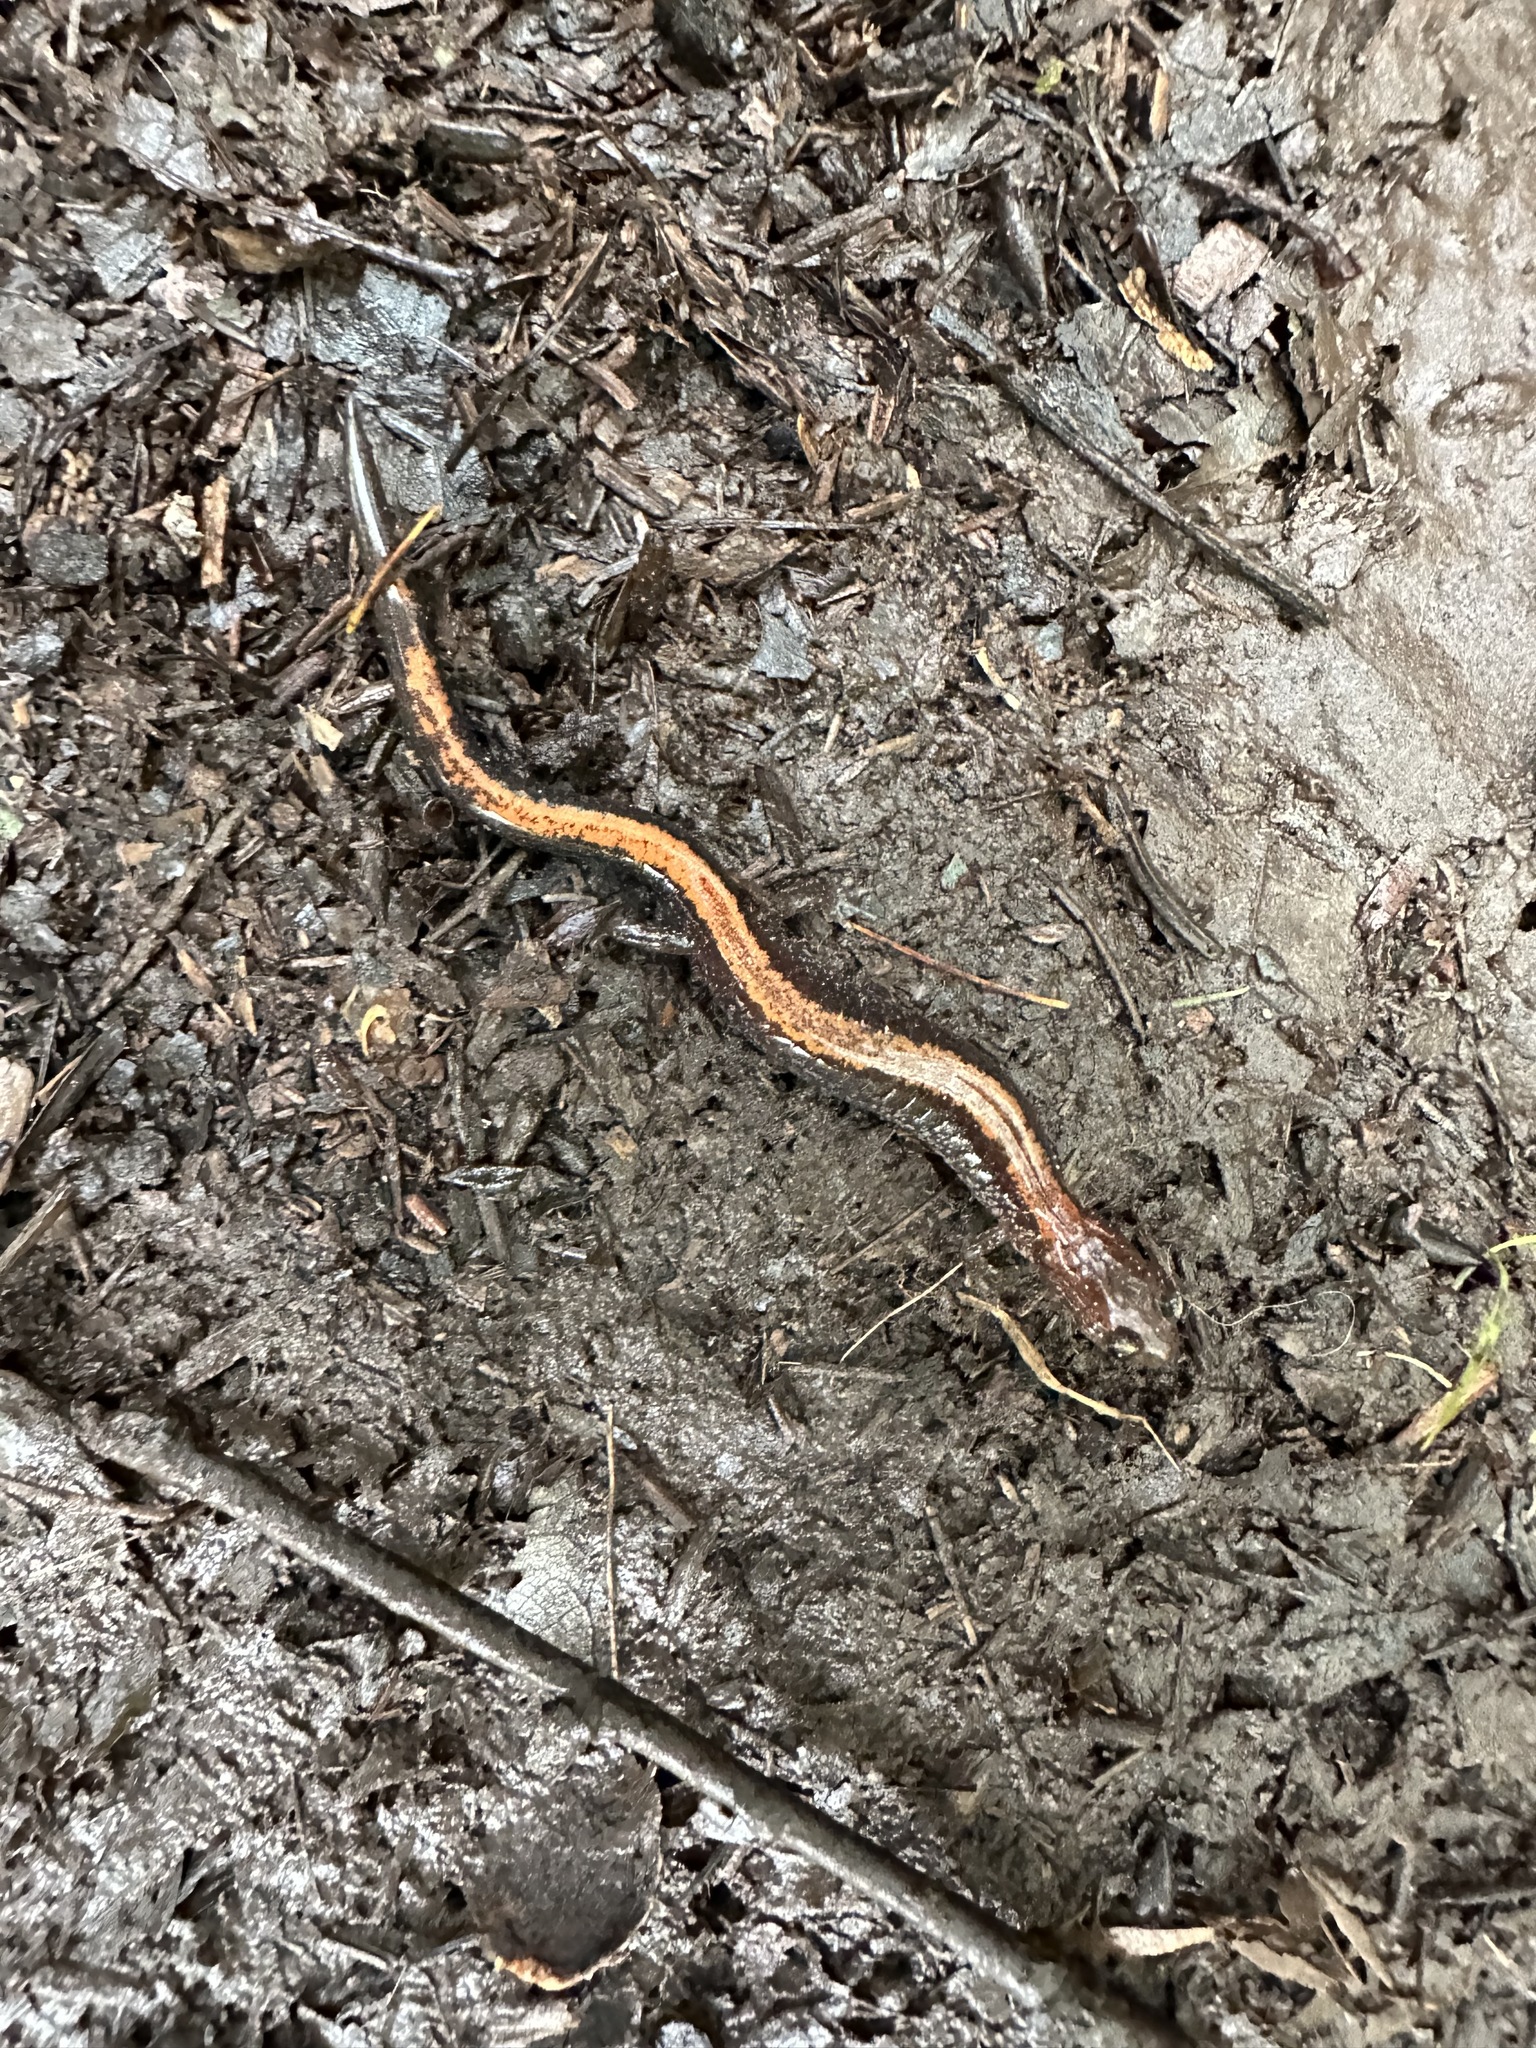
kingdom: Animalia
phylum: Chordata
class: Amphibia
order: Caudata
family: Plethodontidae
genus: Plethodon
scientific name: Plethodon cinereus
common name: Redback salamander
